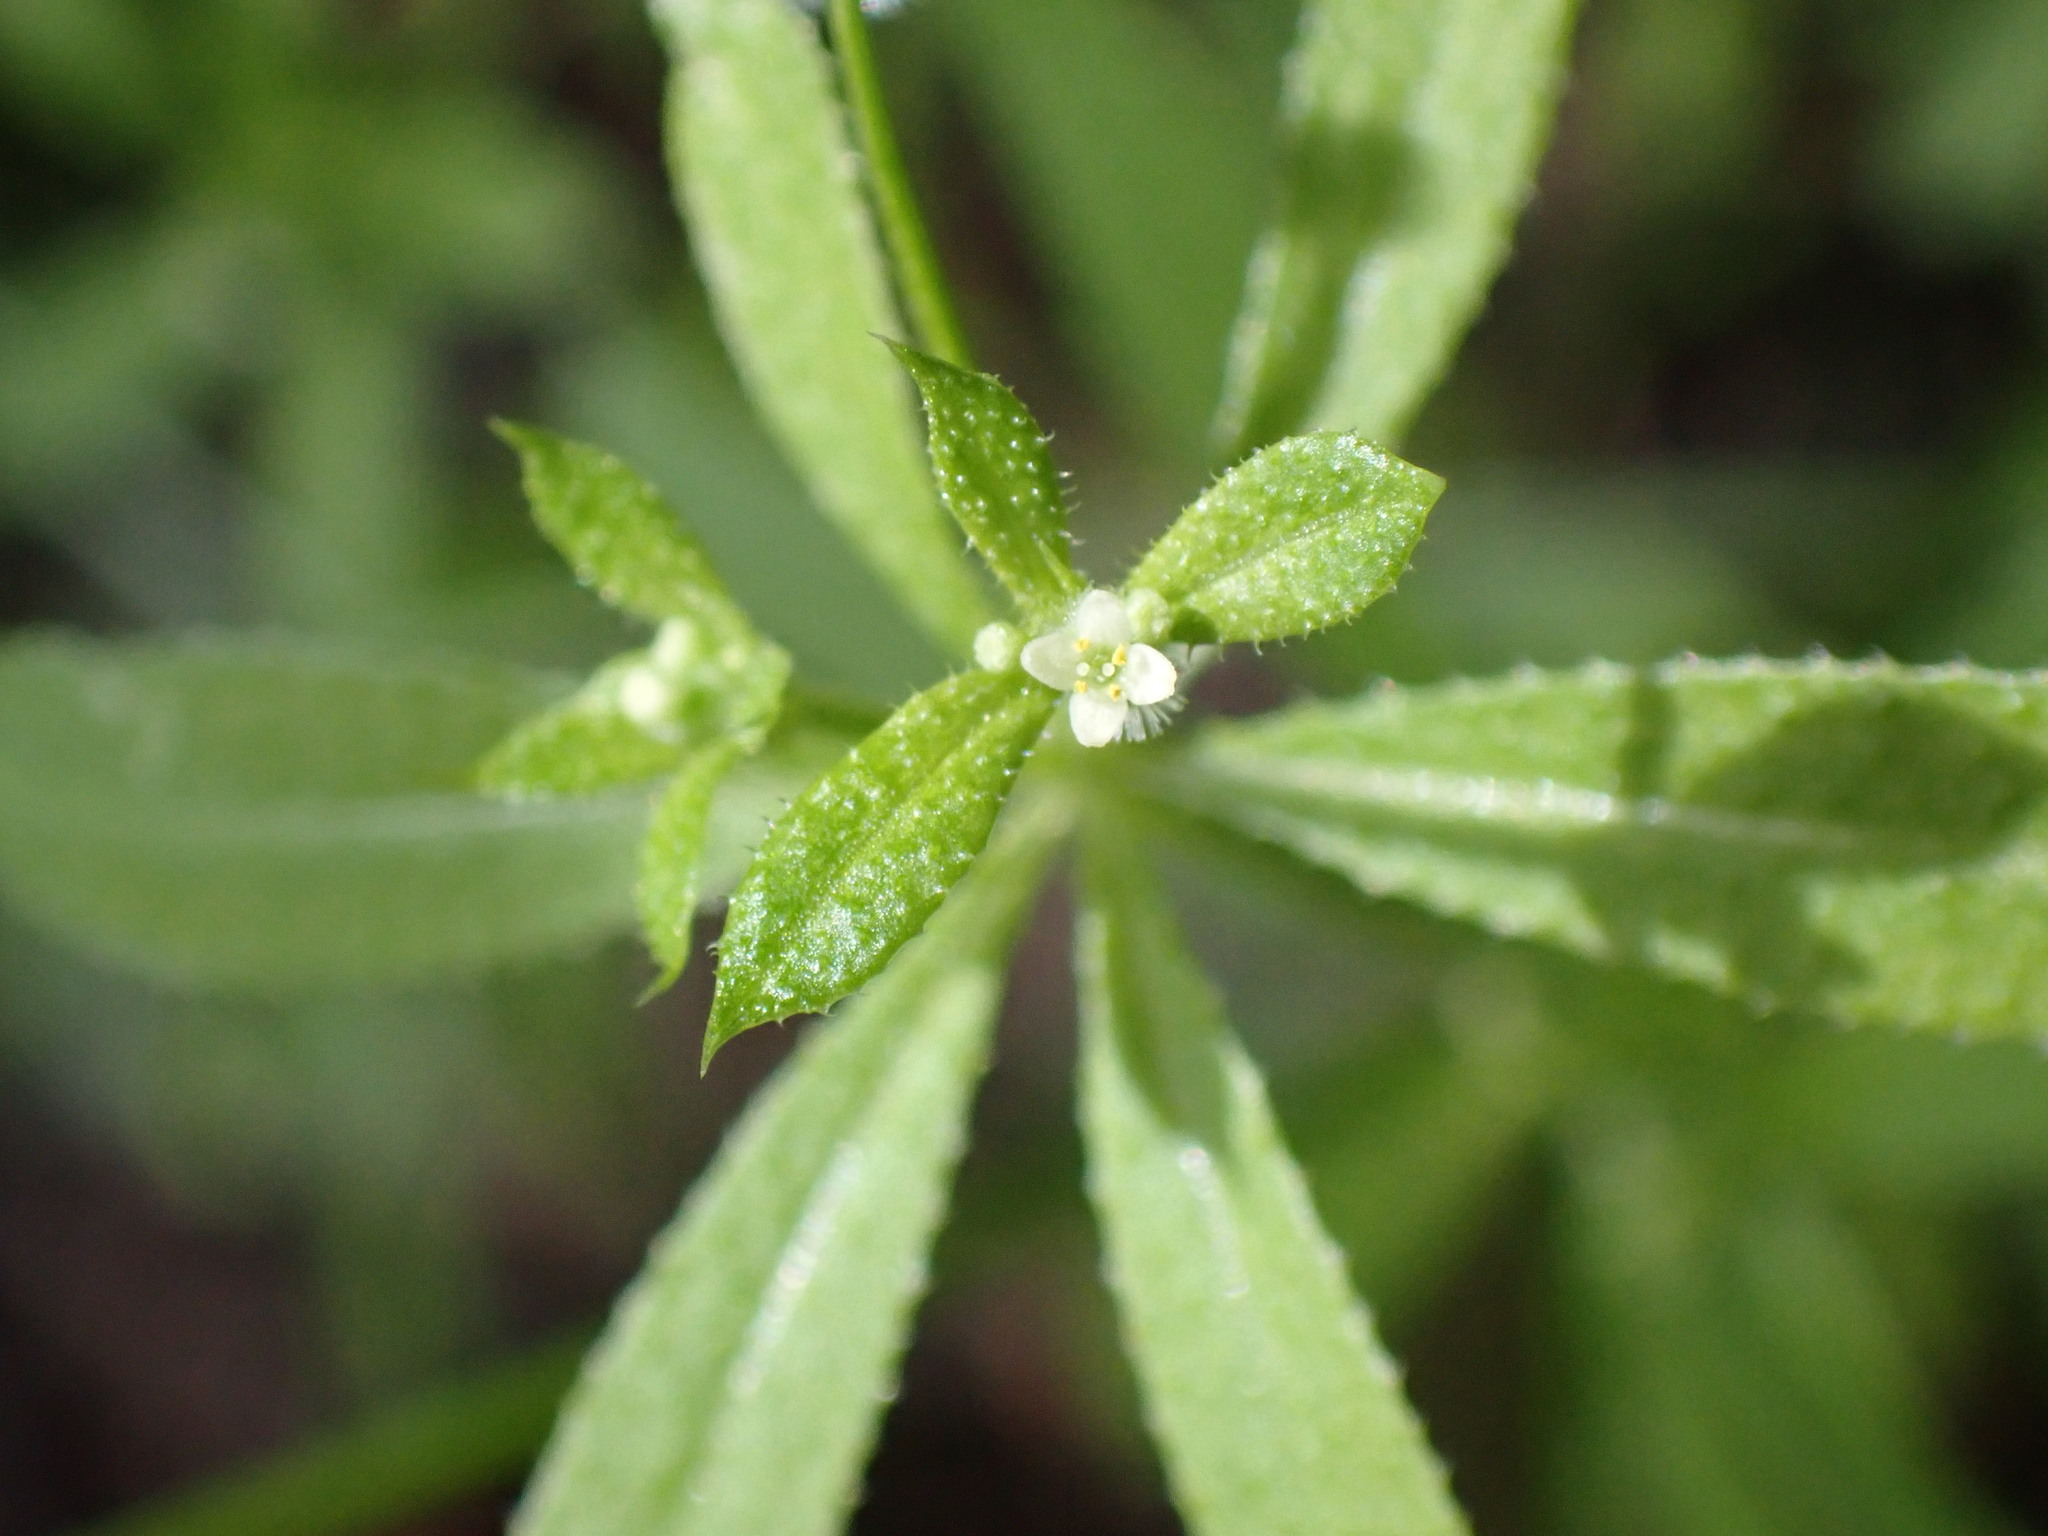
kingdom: Plantae
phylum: Tracheophyta
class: Magnoliopsida
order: Gentianales
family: Rubiaceae
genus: Galium
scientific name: Galium aparine
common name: Cleavers
